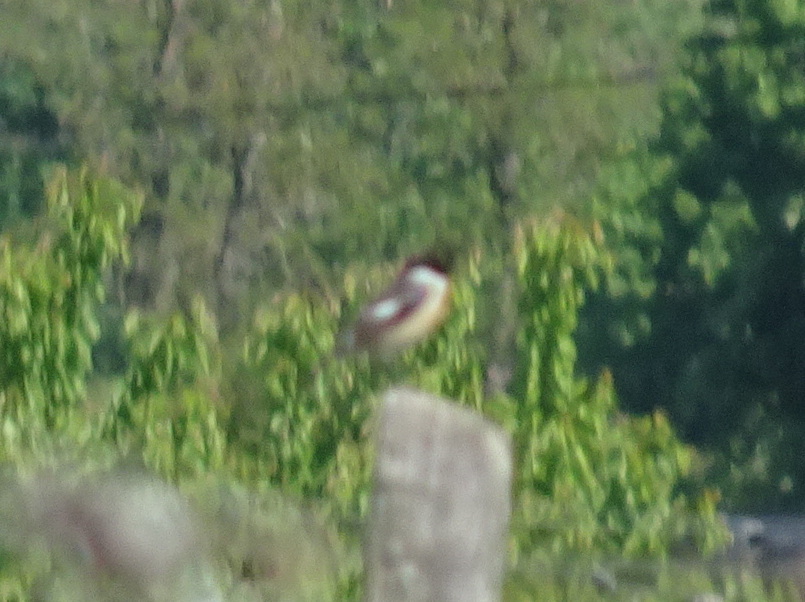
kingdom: Animalia
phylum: Chordata
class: Aves
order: Passeriformes
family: Muscicapidae
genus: Saxicola
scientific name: Saxicola rubicola
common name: European stonechat
